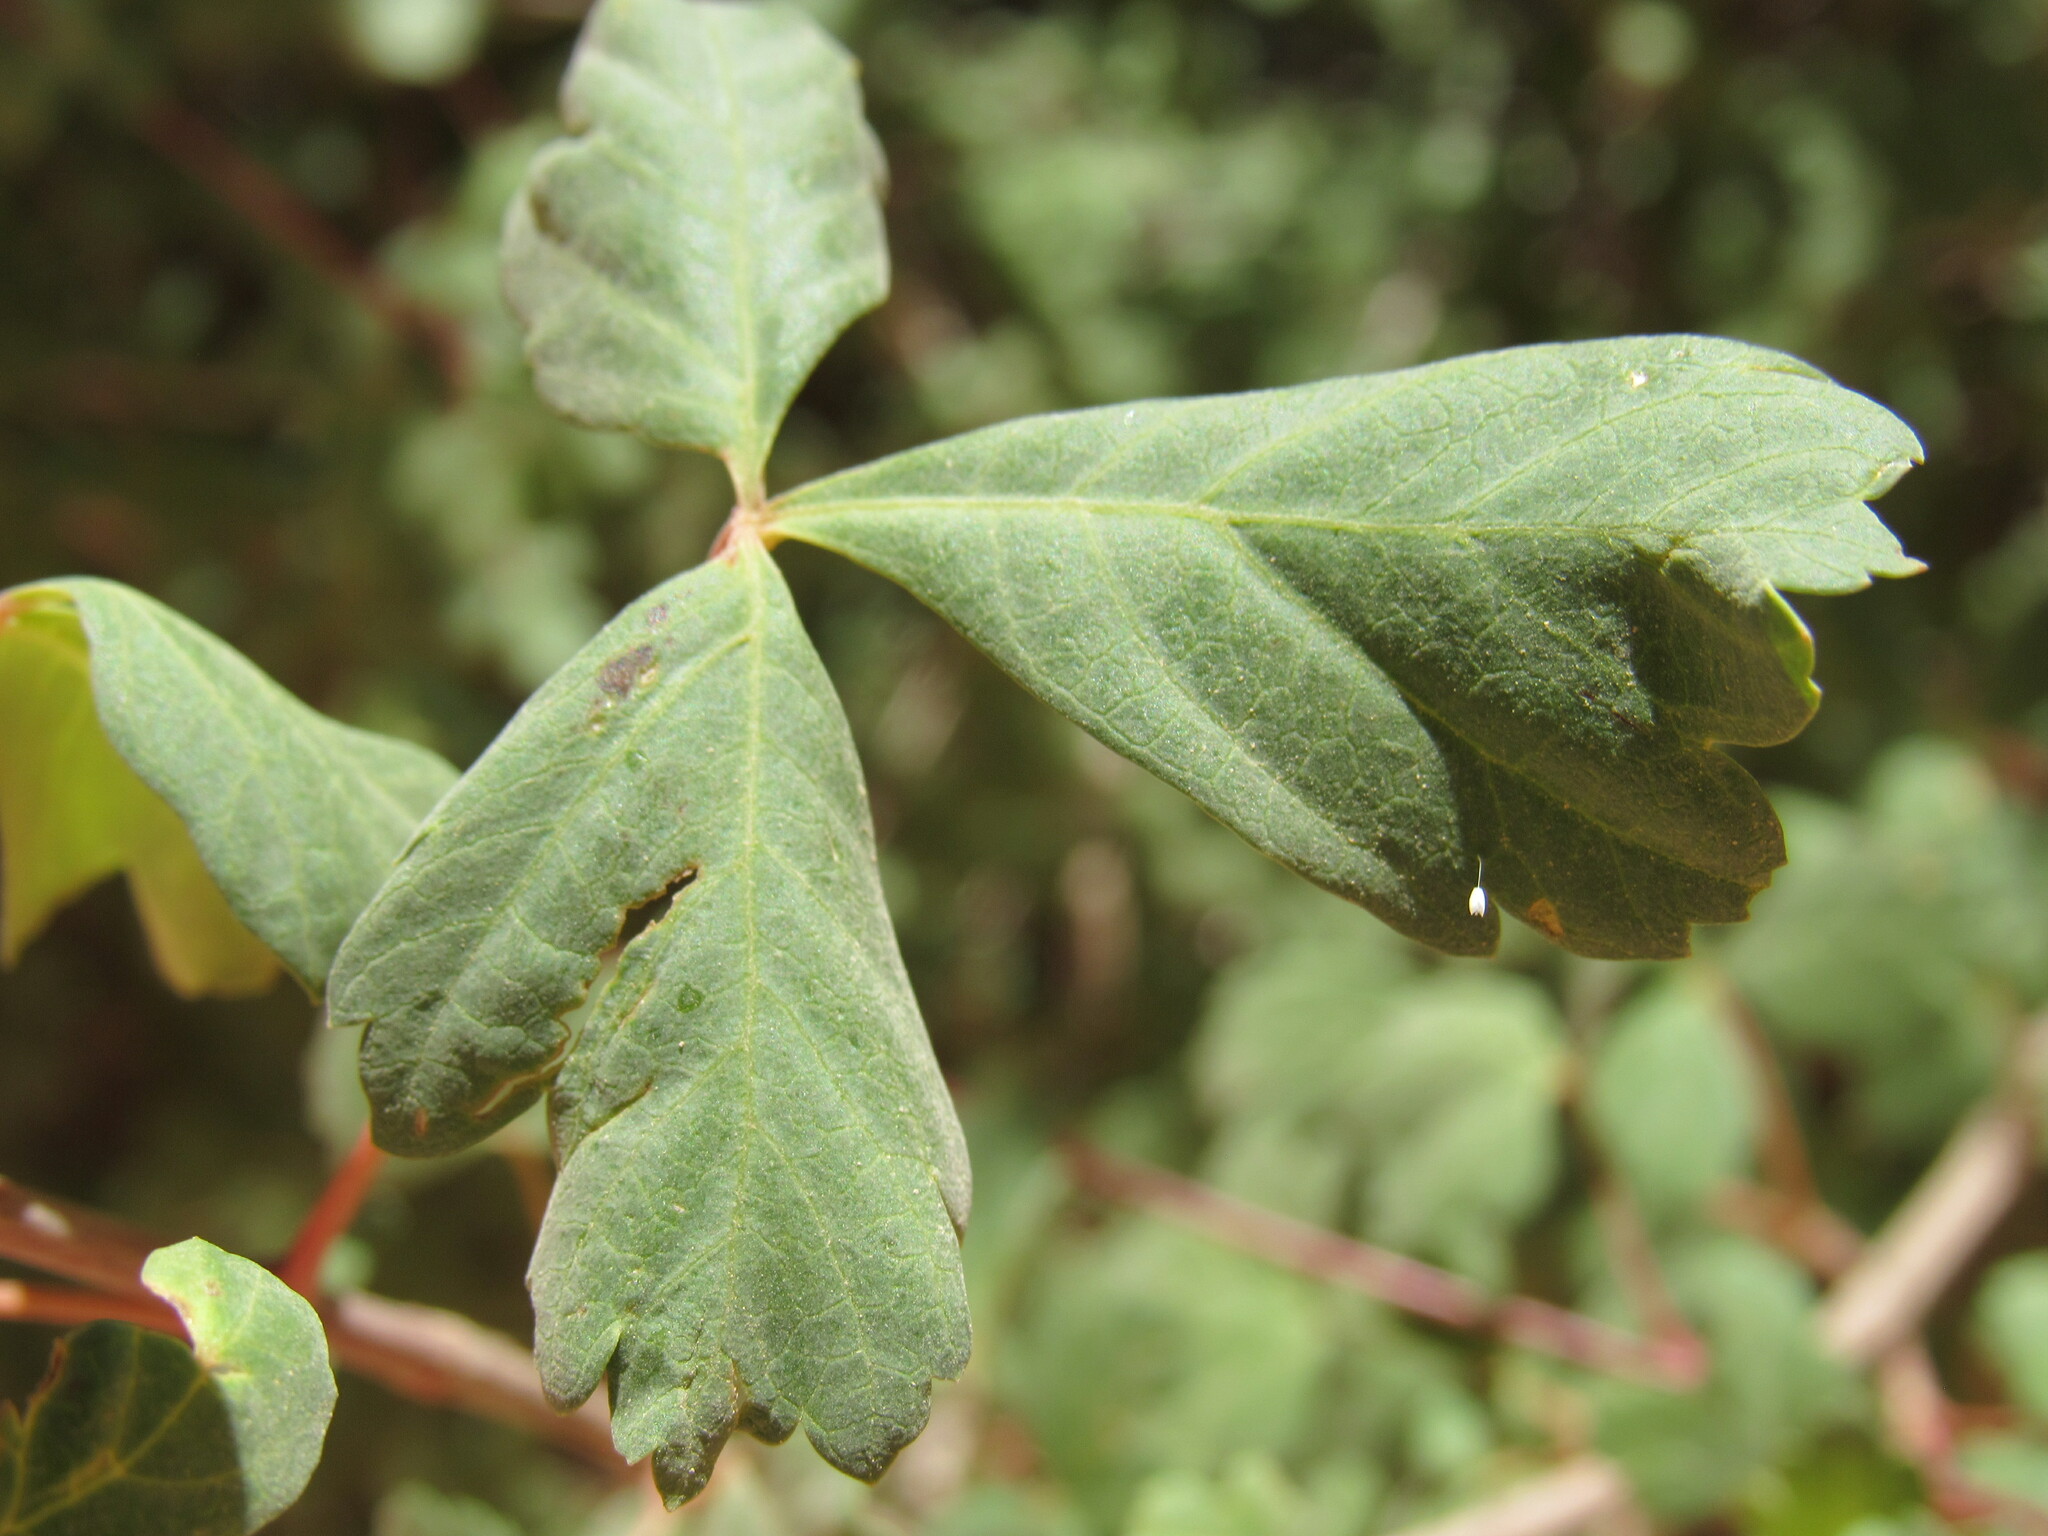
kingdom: Plantae
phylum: Tracheophyta
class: Magnoliopsida
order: Sapindales
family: Sapindaceae
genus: Acer
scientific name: Acer glabrum
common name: Rocky mountain maple
